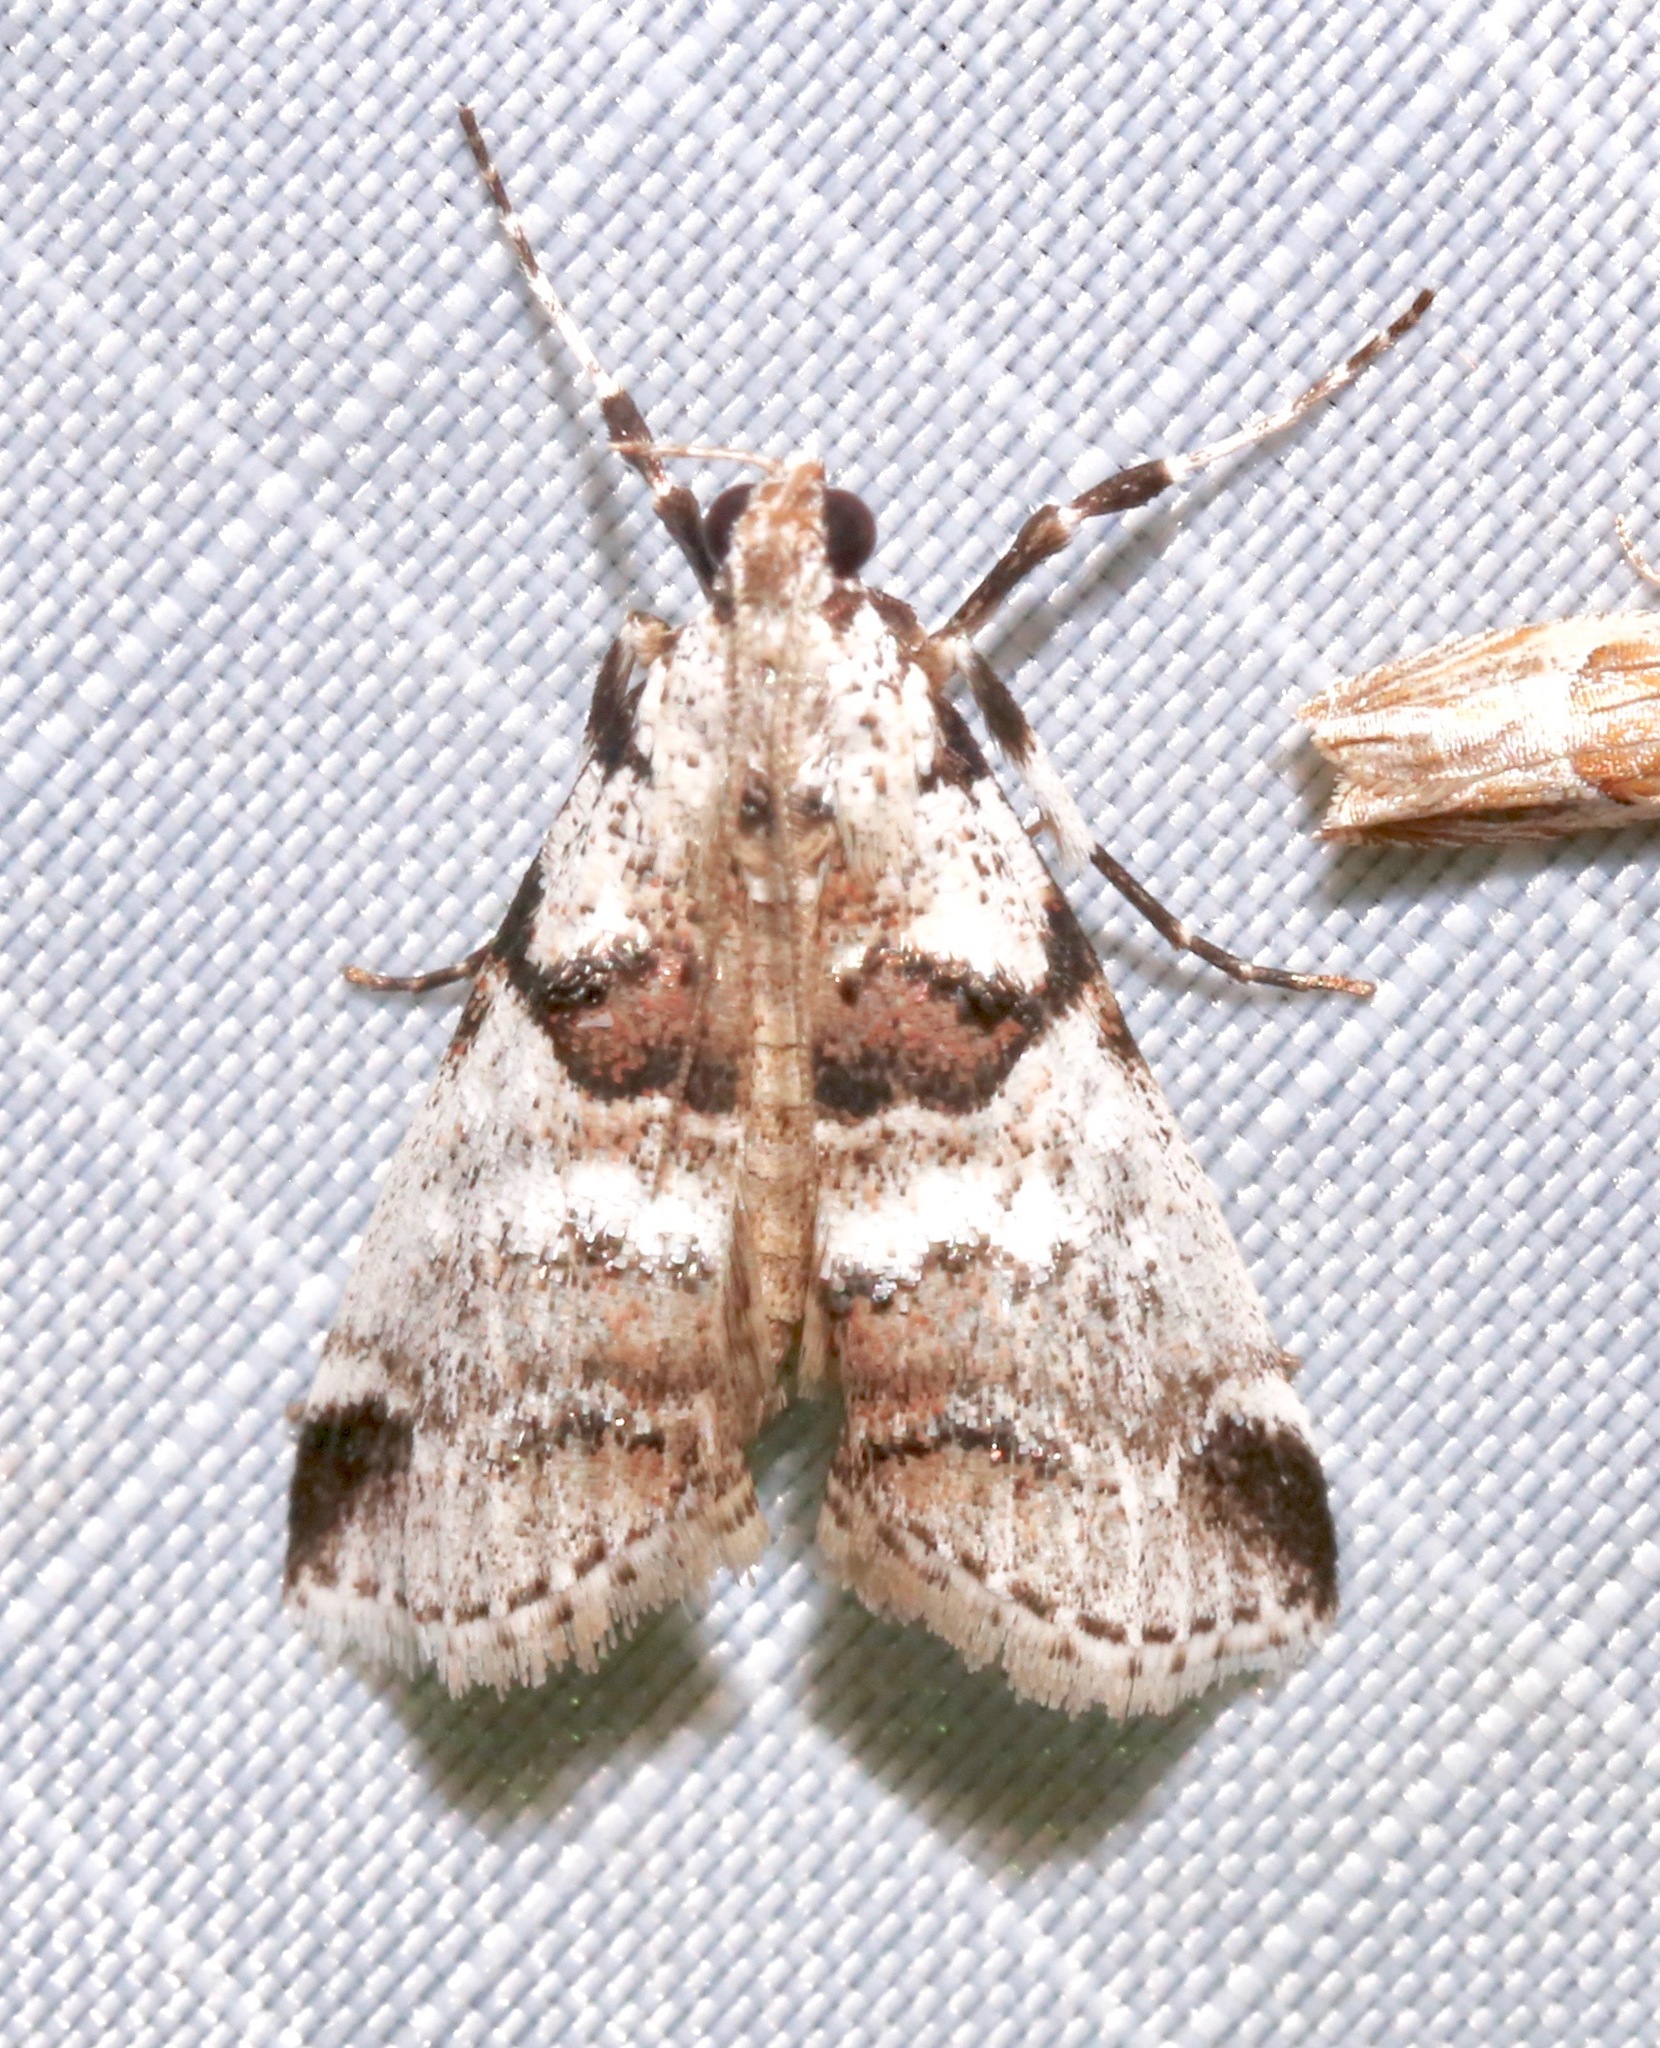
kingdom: Animalia
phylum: Arthropoda
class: Insecta
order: Lepidoptera
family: Pyralidae
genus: Tallula
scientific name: Tallula atrifascialis
